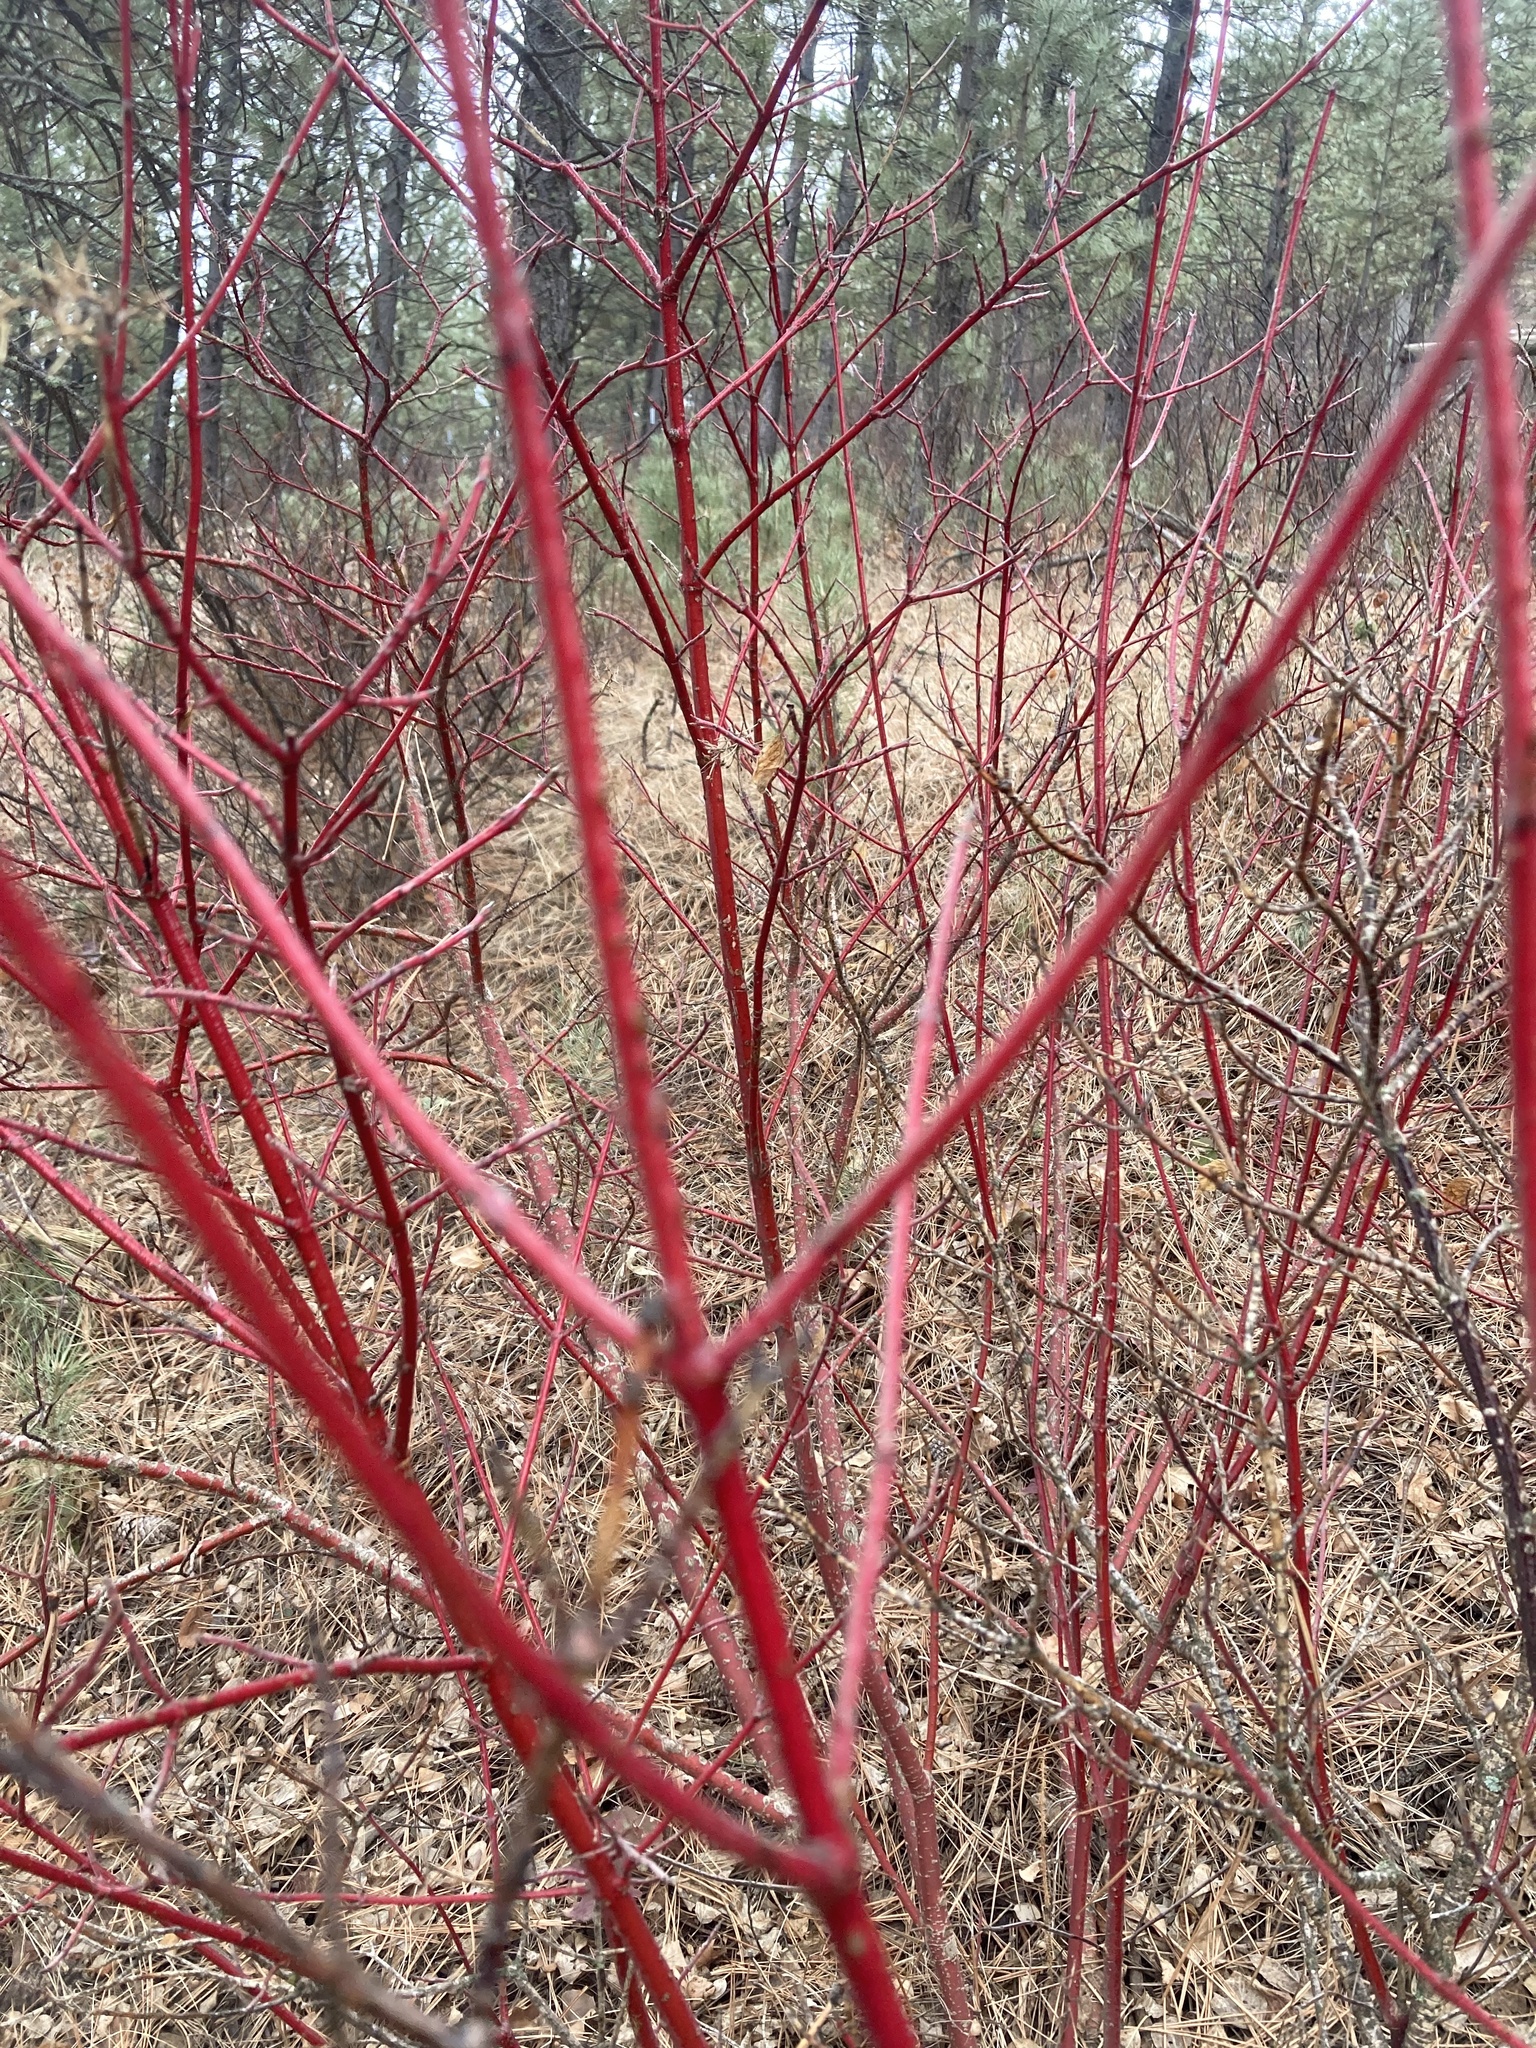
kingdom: Plantae
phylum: Tracheophyta
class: Magnoliopsida
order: Cornales
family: Cornaceae
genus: Cornus
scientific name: Cornus sericea
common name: Red-osier dogwood
